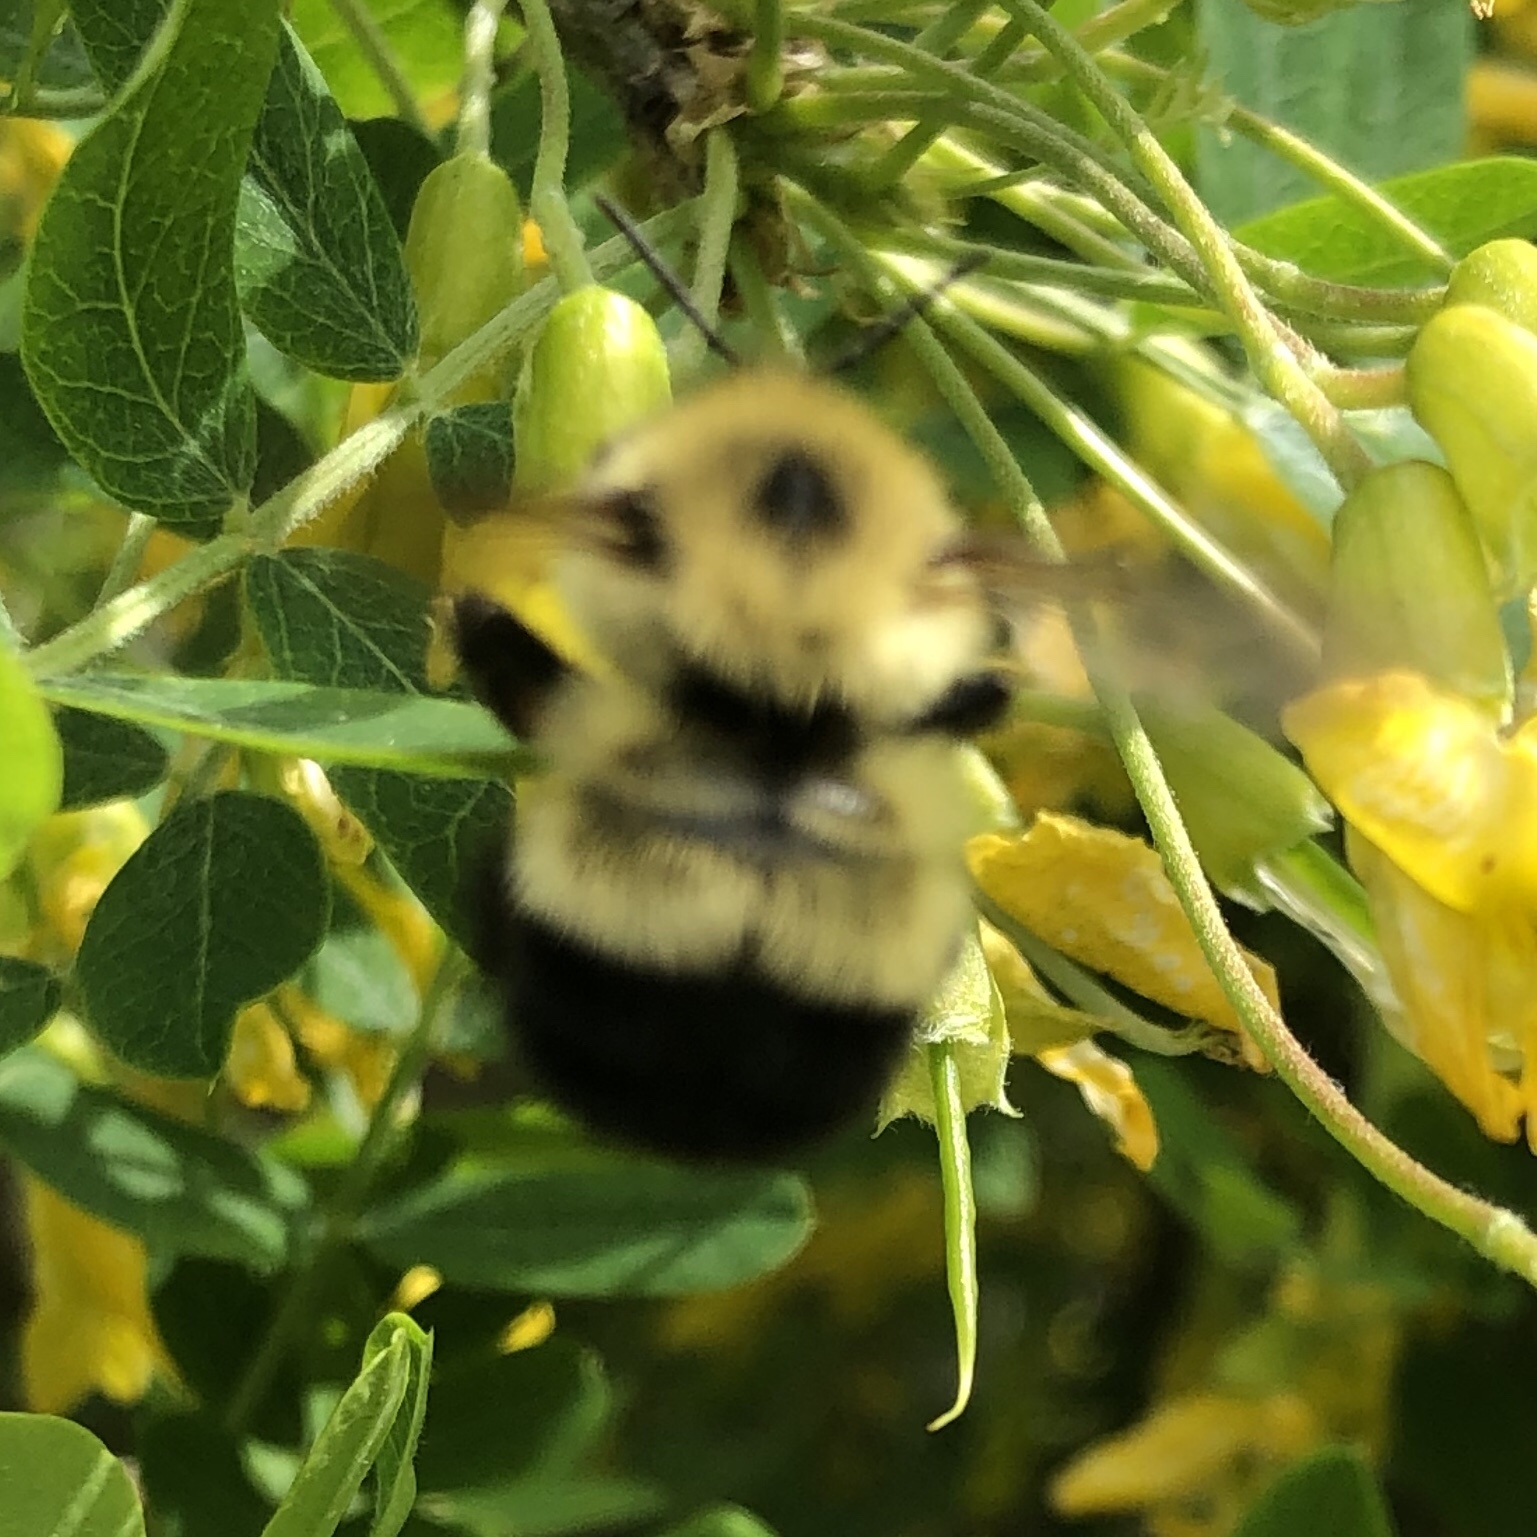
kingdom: Animalia
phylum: Arthropoda
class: Insecta
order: Hymenoptera
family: Apidae
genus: Bombus
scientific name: Bombus vagans
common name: Half-black bumble bee
